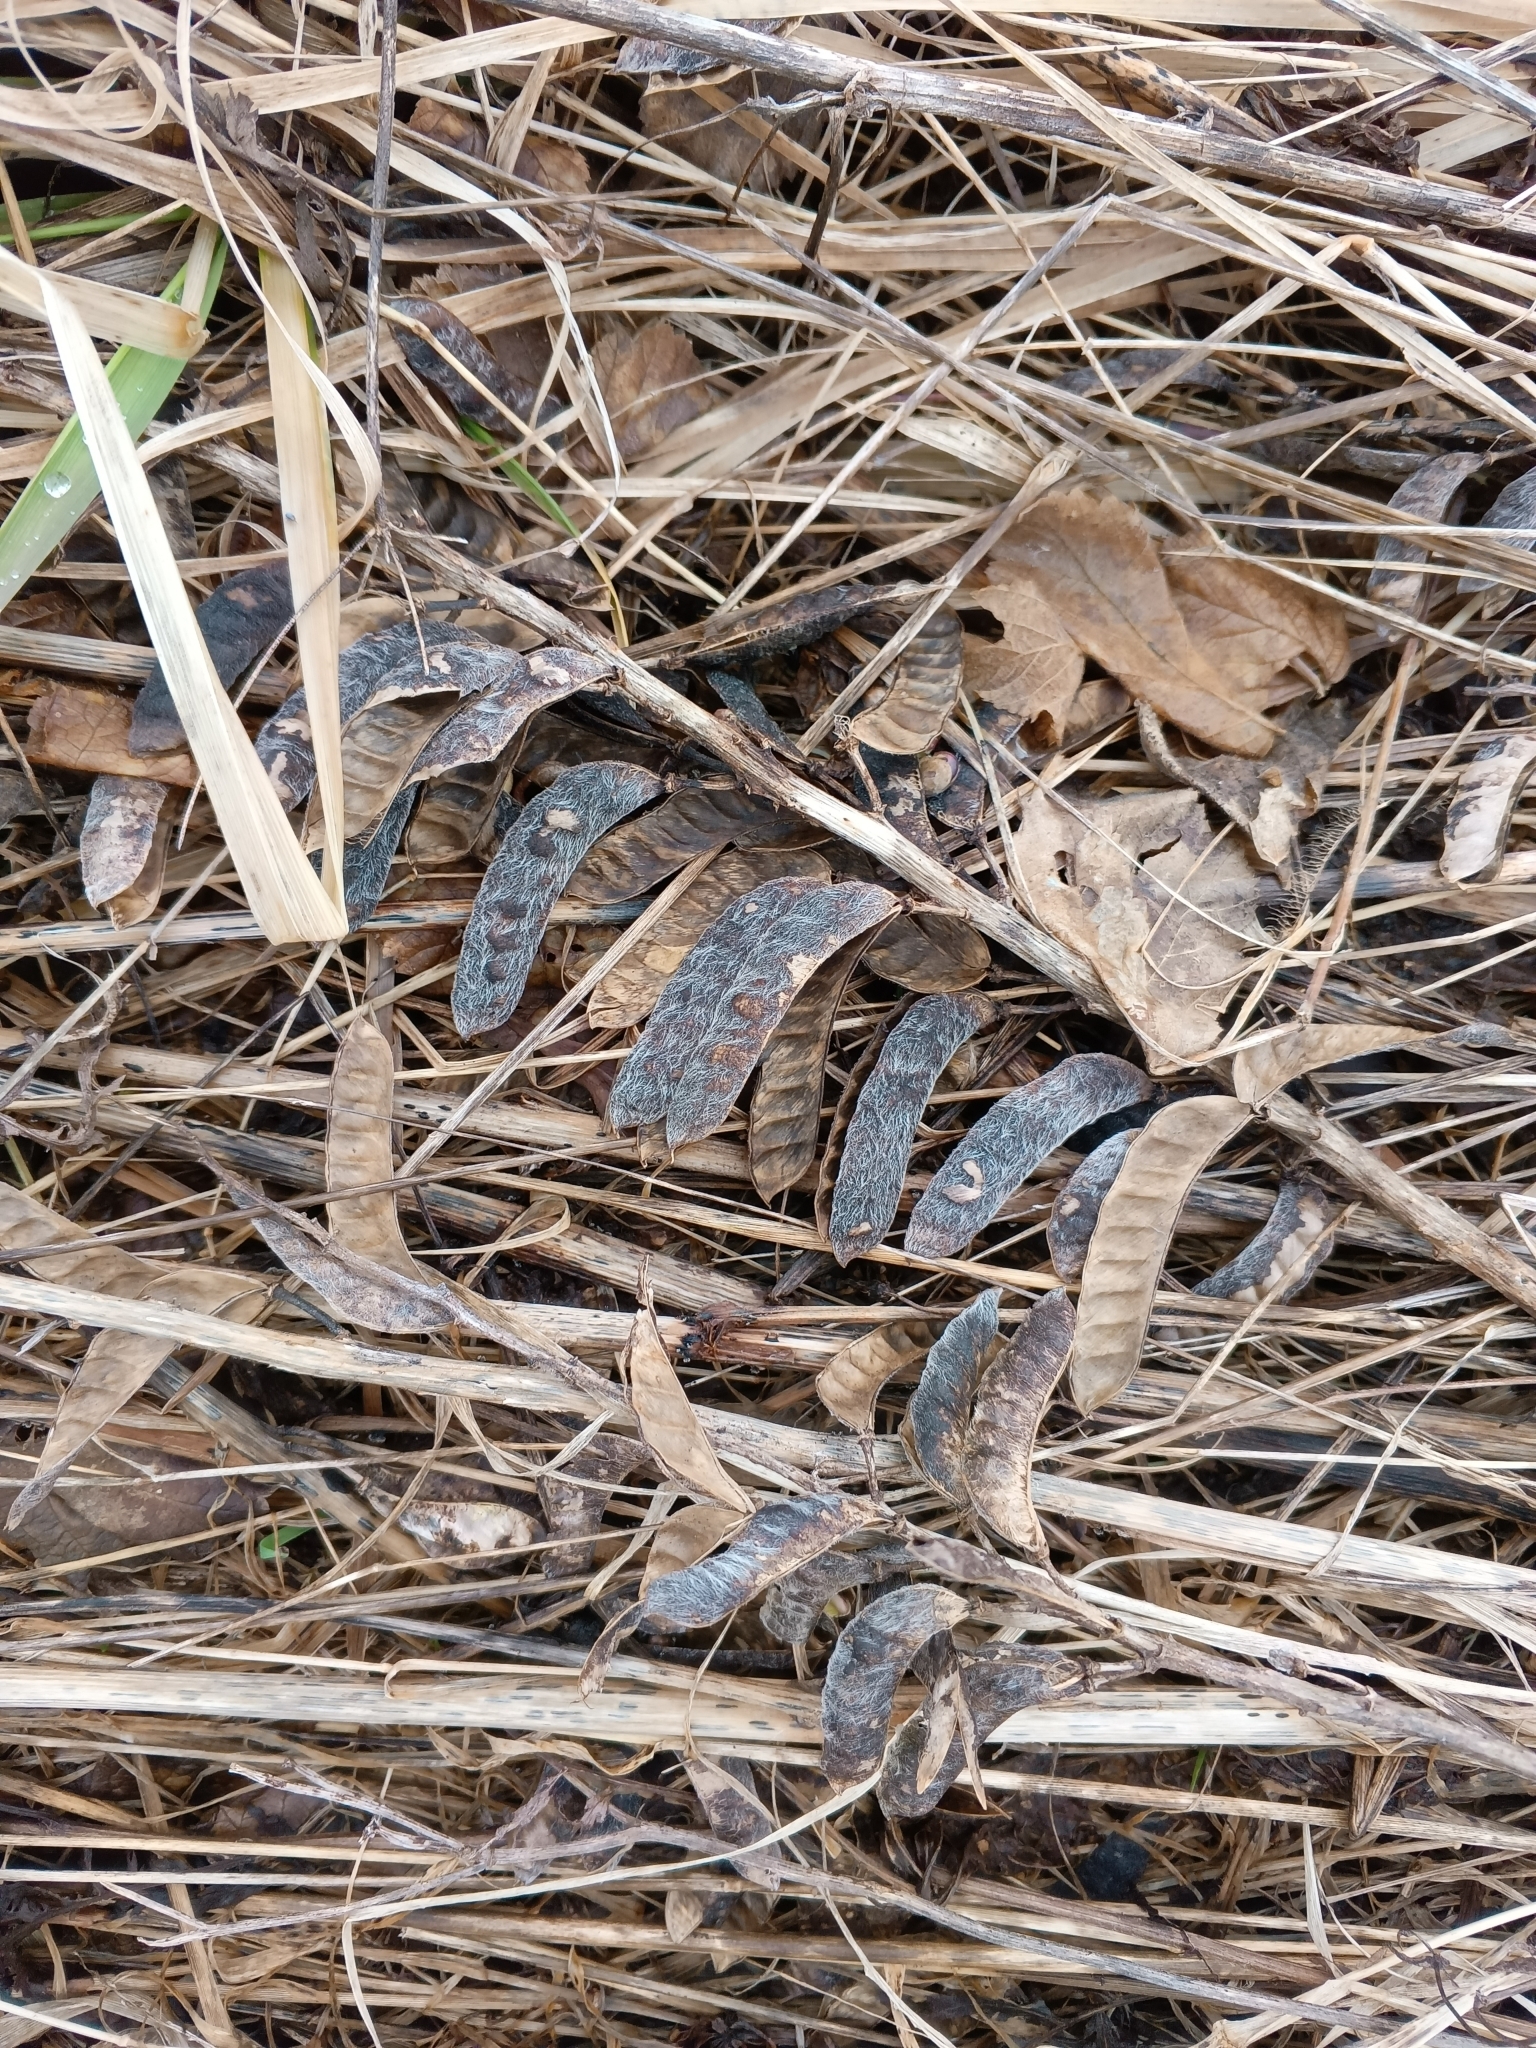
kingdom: Plantae
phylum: Tracheophyta
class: Magnoliopsida
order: Fabales
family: Fabaceae
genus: Lupinus
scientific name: Lupinus polyphyllus
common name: Garden lupin
